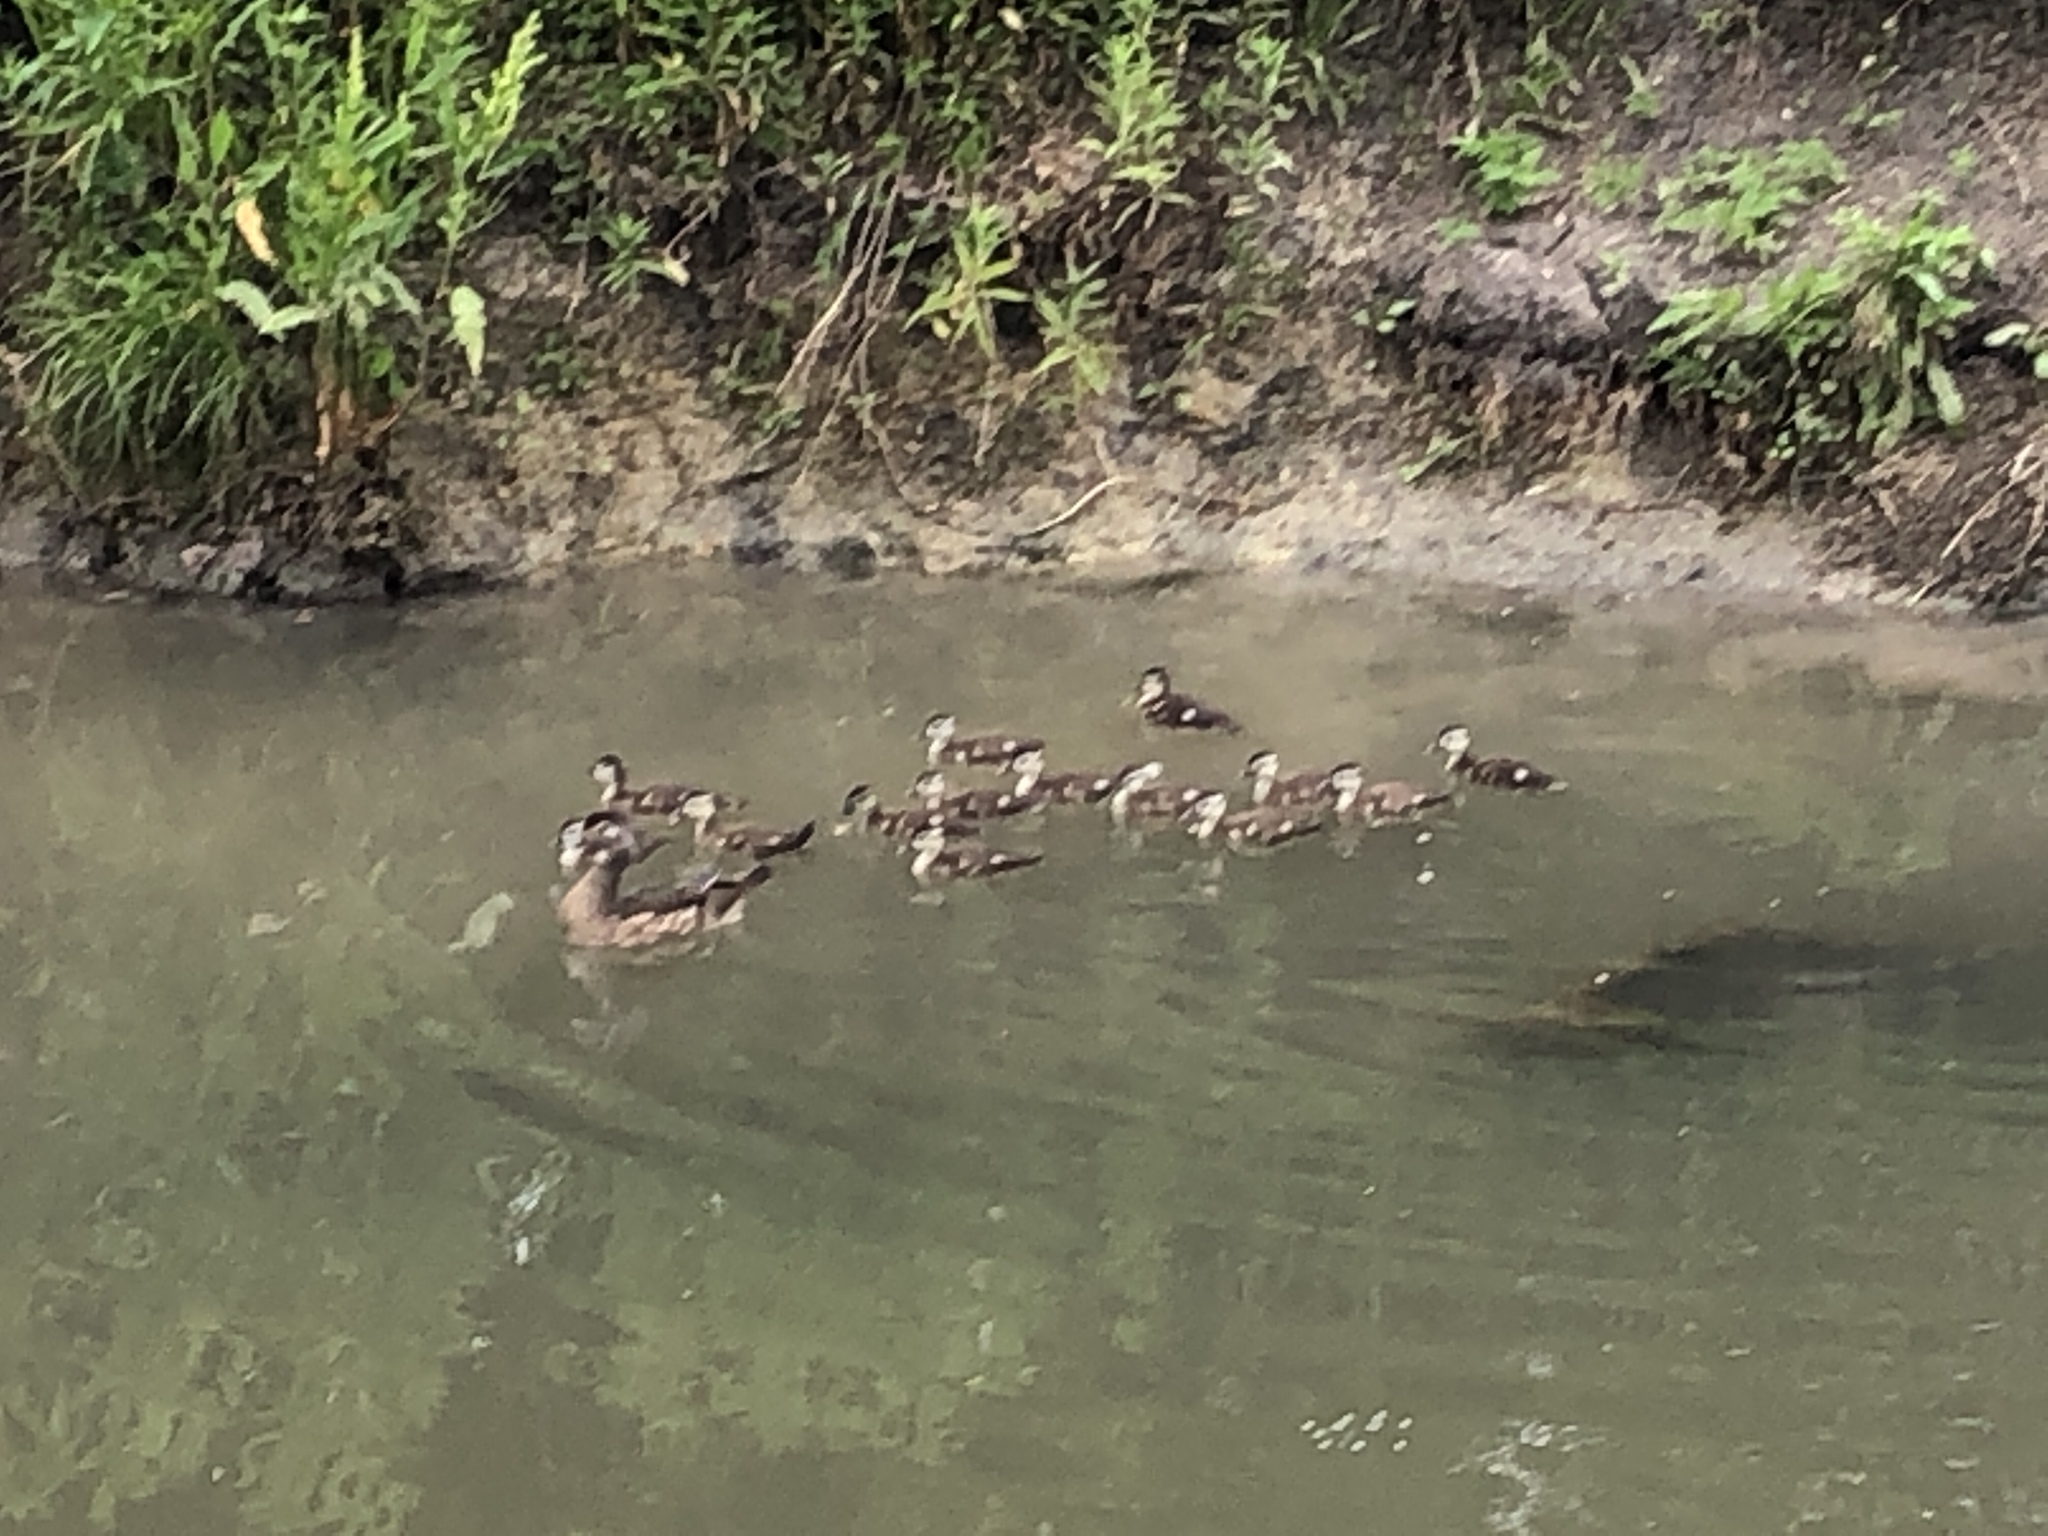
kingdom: Animalia
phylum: Chordata
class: Aves
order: Anseriformes
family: Anatidae
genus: Aix
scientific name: Aix sponsa
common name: Wood duck
